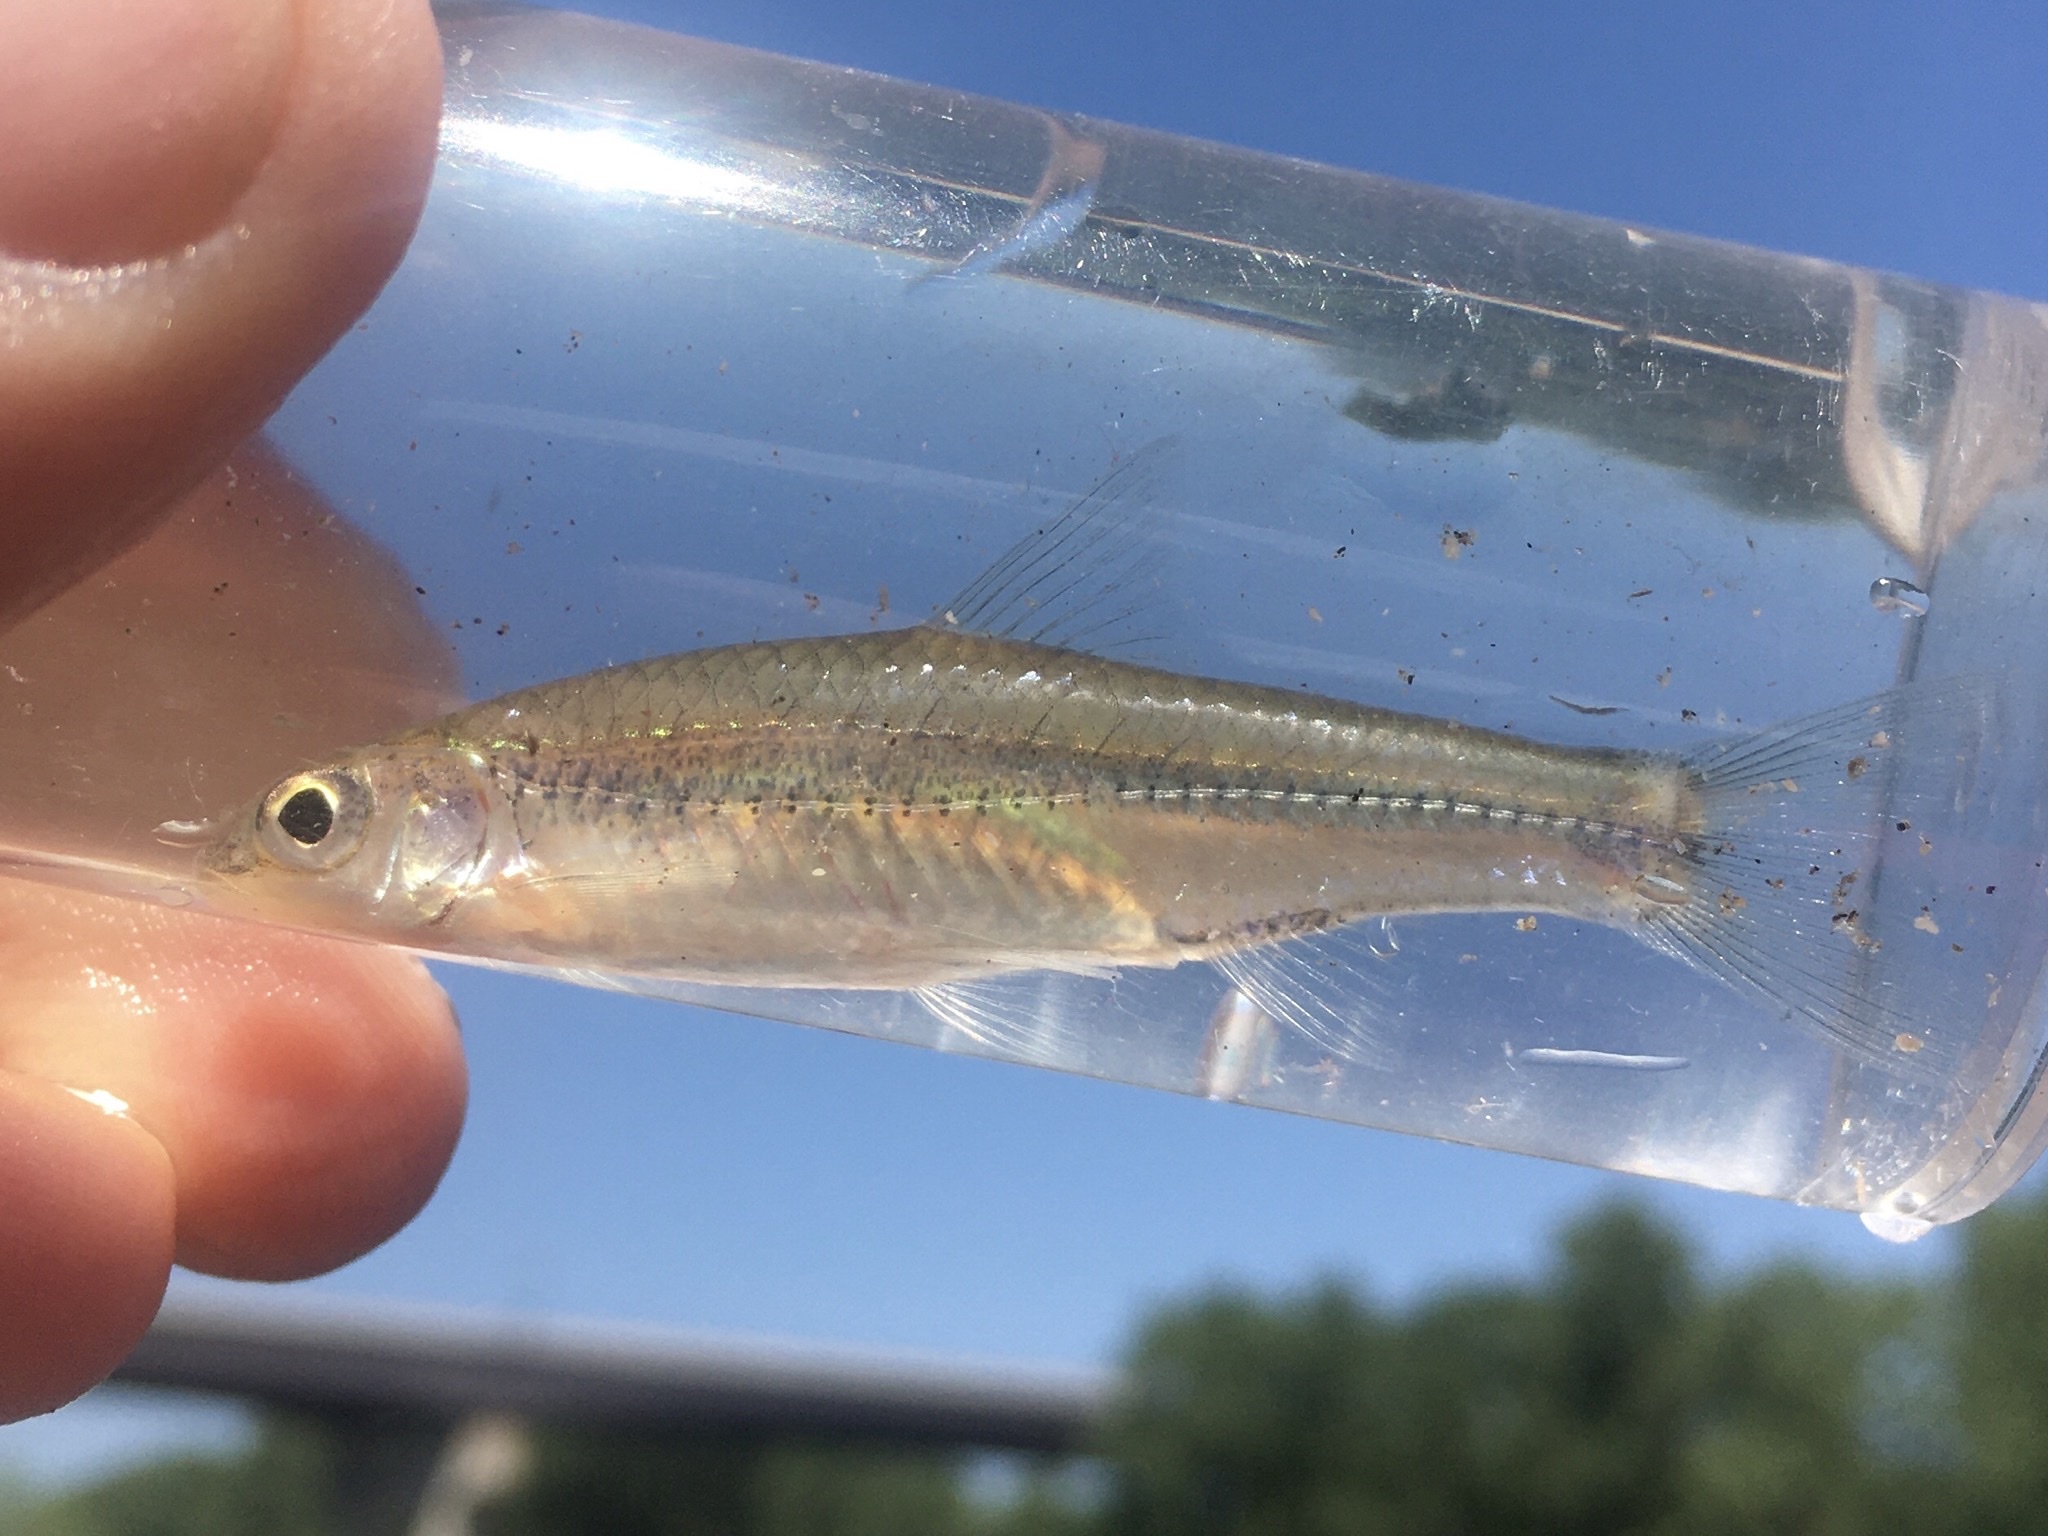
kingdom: Animalia
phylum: Chordata
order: Cypriniformes
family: Cyprinidae
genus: Notropis
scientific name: Notropis
